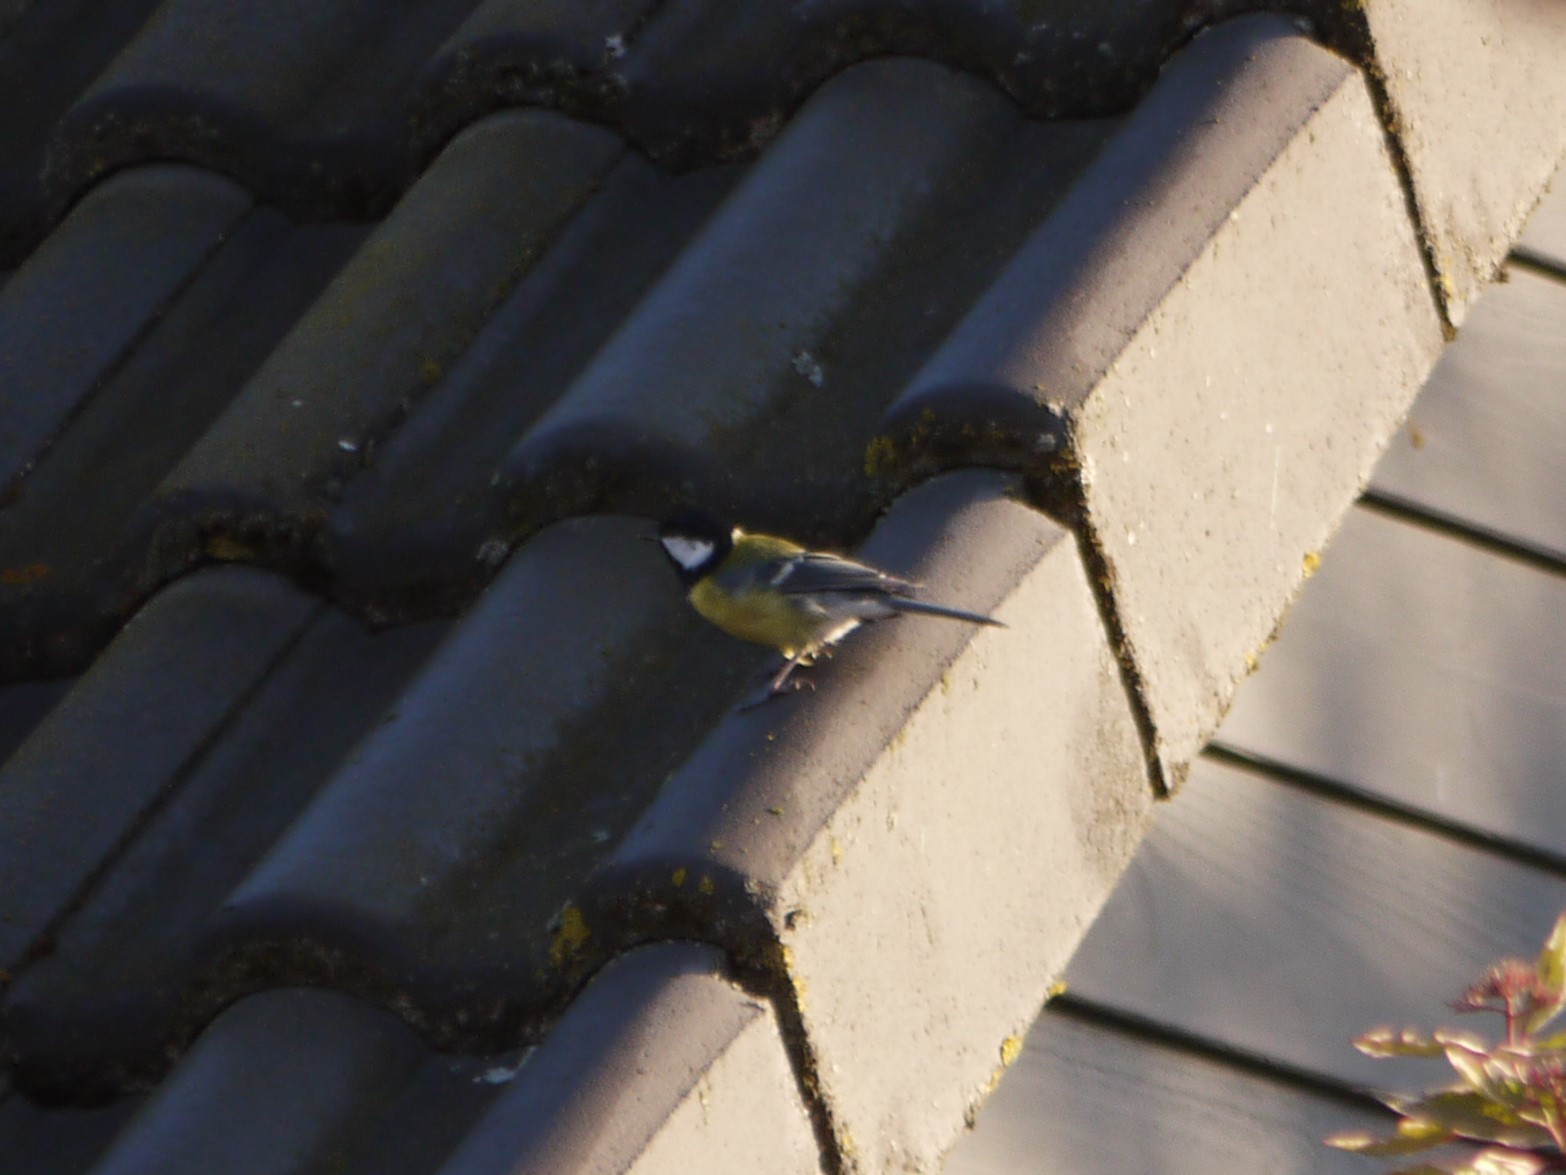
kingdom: Animalia
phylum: Chordata
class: Aves
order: Passeriformes
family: Paridae
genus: Parus
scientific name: Parus major
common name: Great tit
